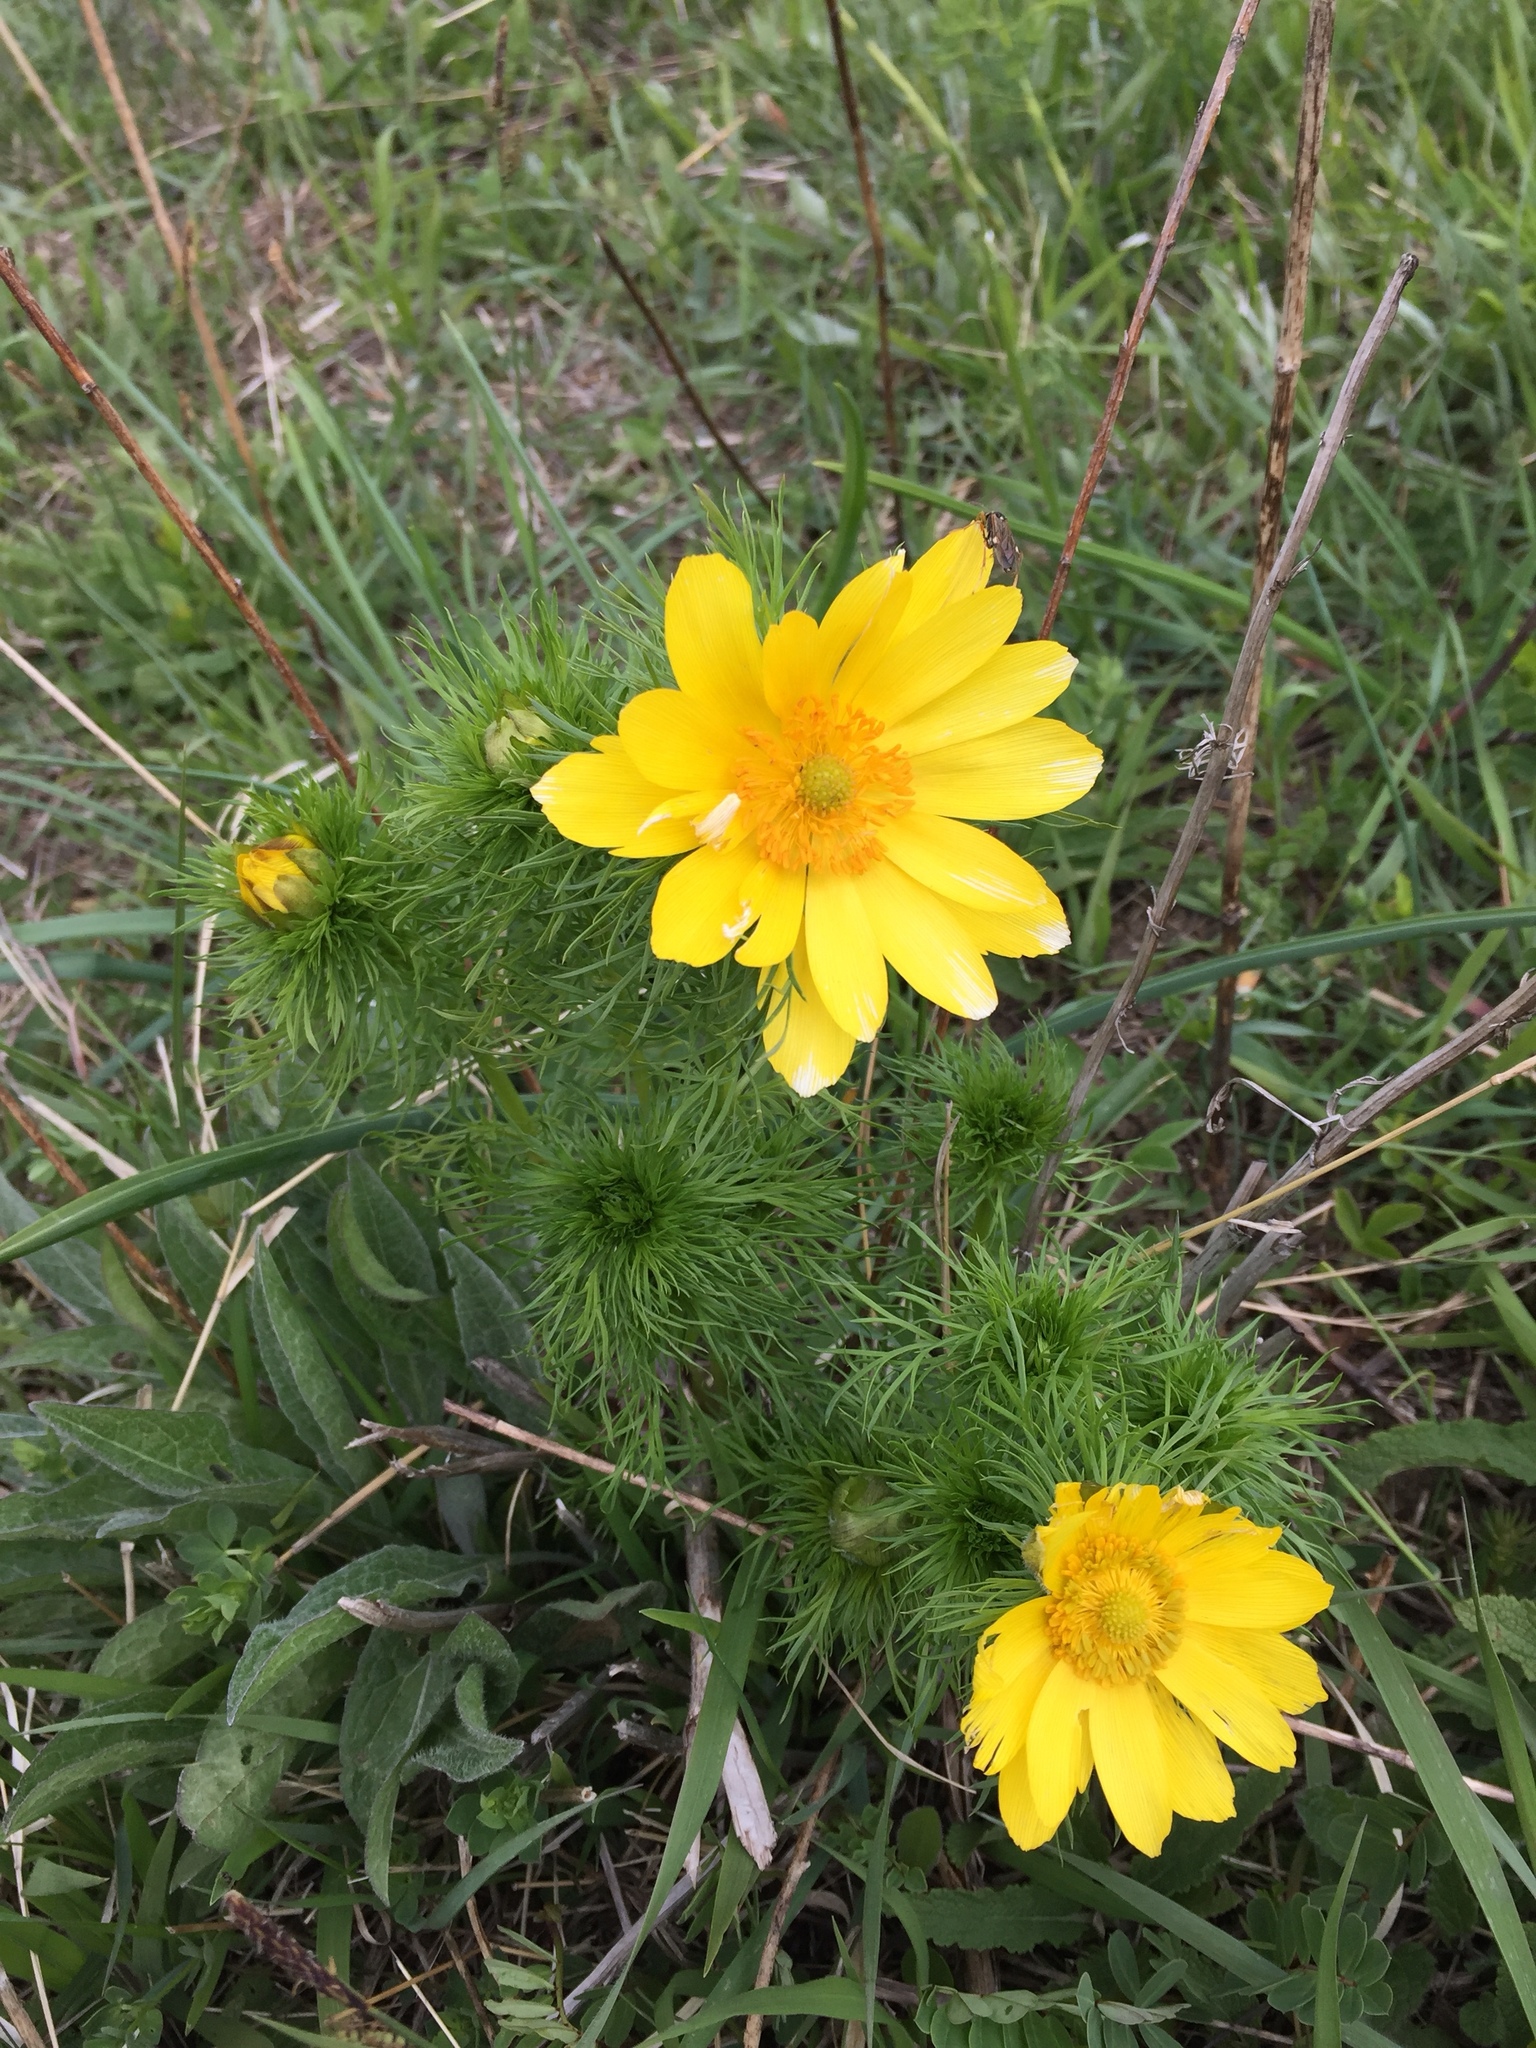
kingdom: Plantae
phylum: Tracheophyta
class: Magnoliopsida
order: Ranunculales
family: Ranunculaceae
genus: Adonis
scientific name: Adonis vernalis
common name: Yellow pheasants-eye
